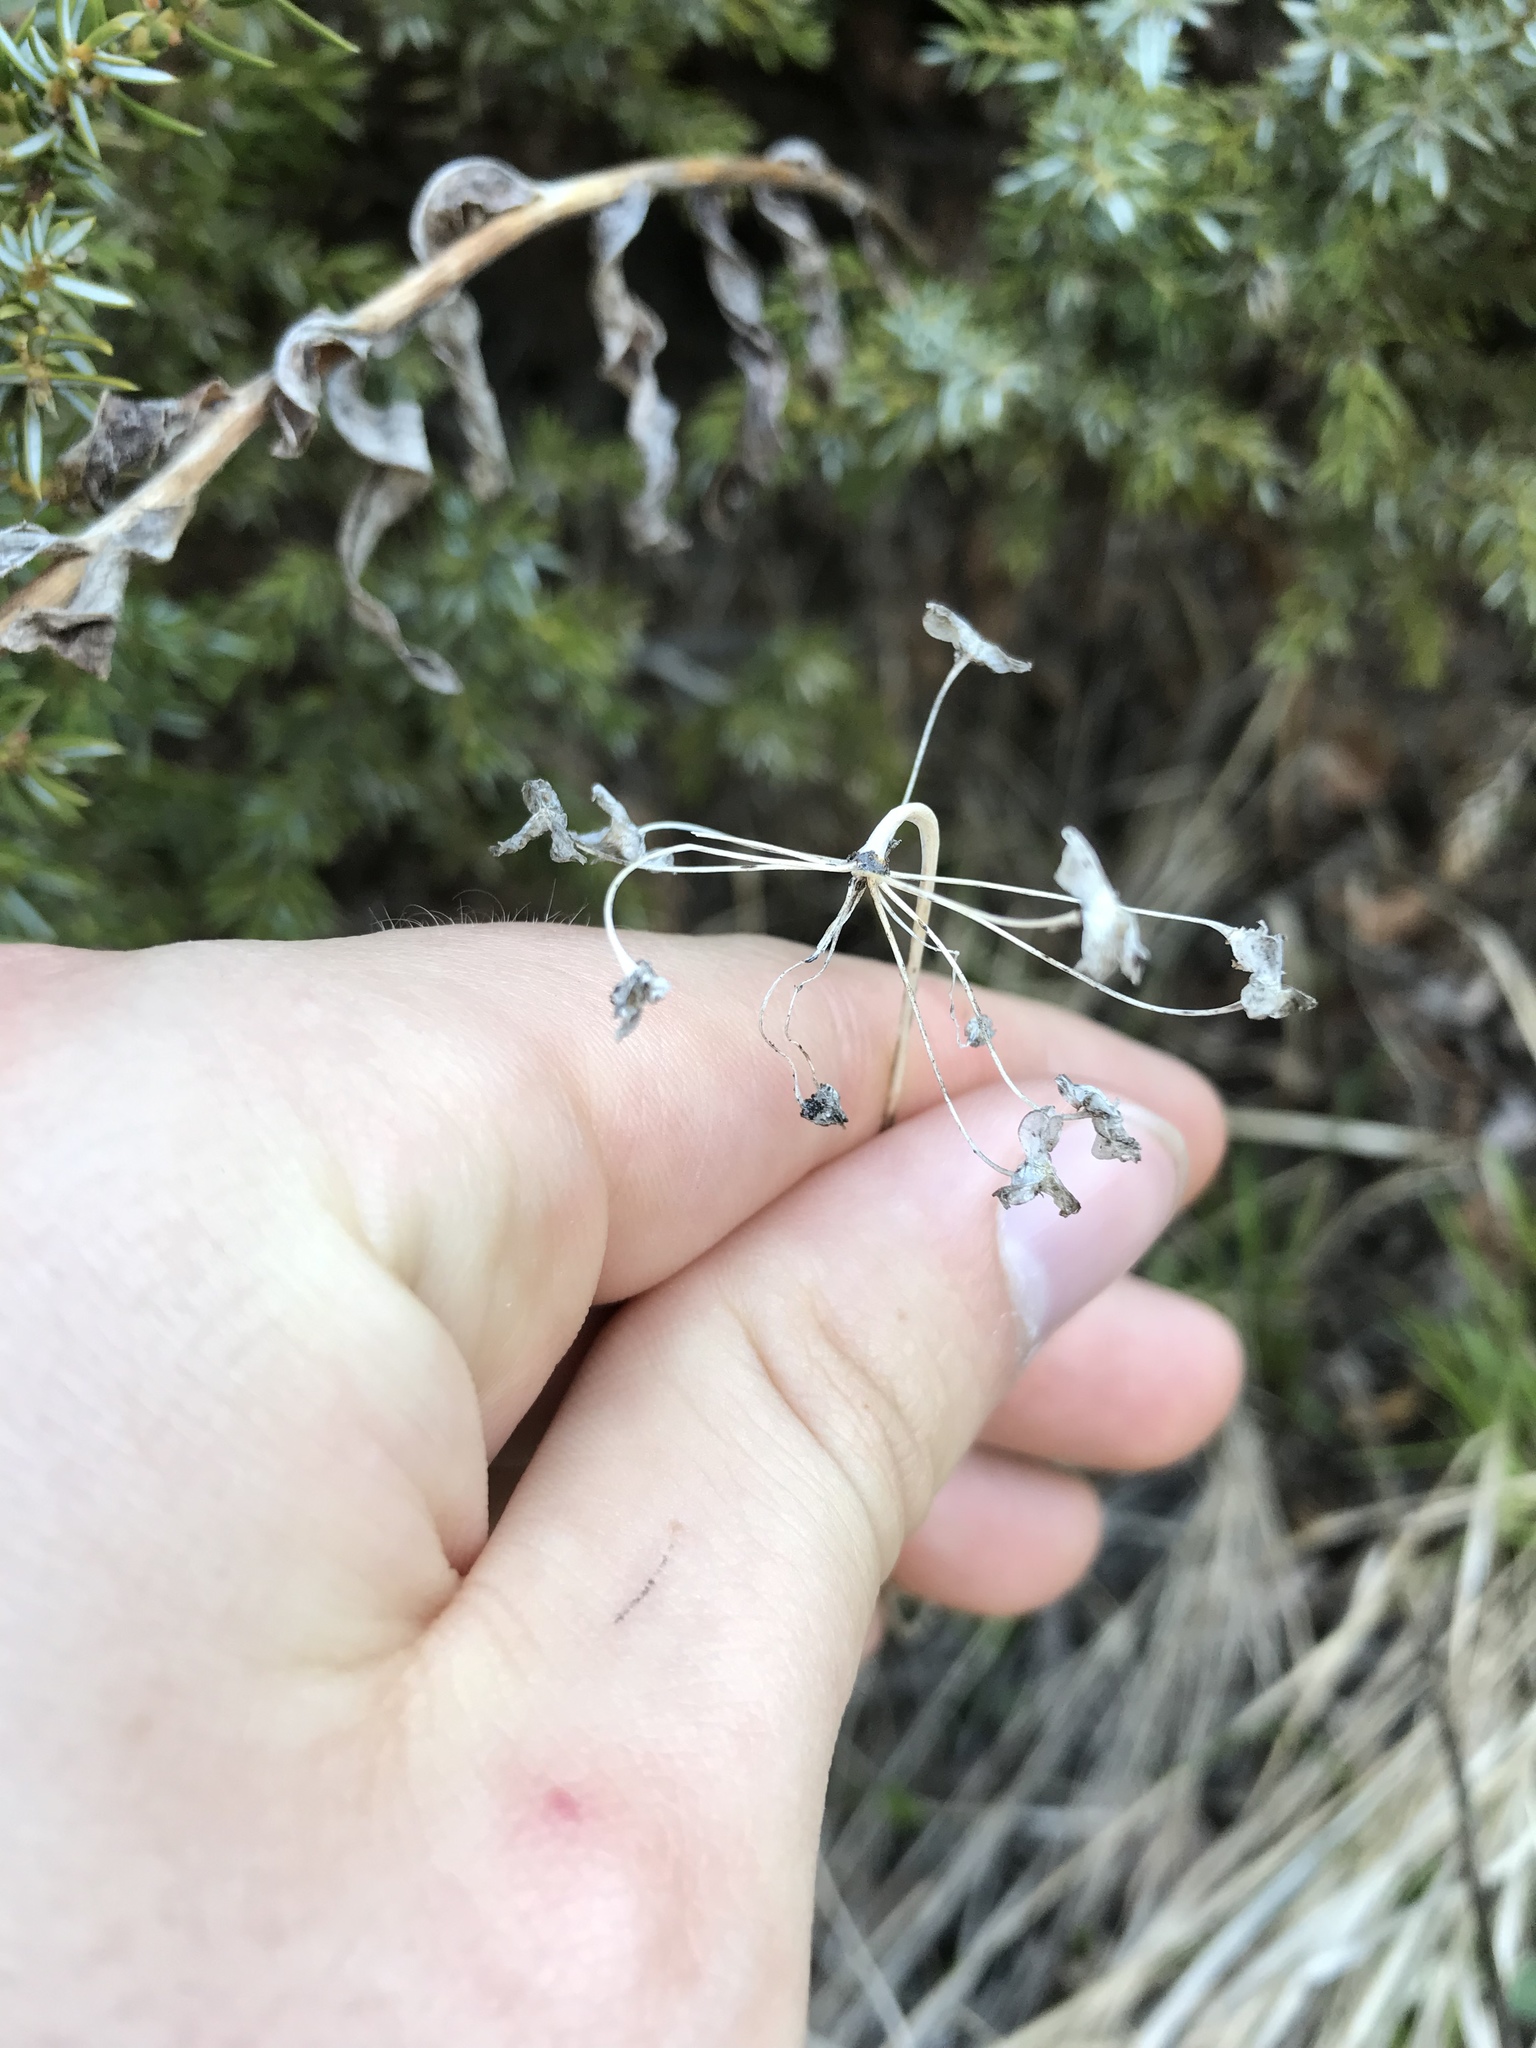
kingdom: Plantae
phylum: Tracheophyta
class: Liliopsida
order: Asparagales
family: Amaryllidaceae
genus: Allium
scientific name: Allium cernuum
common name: Nodding onion
